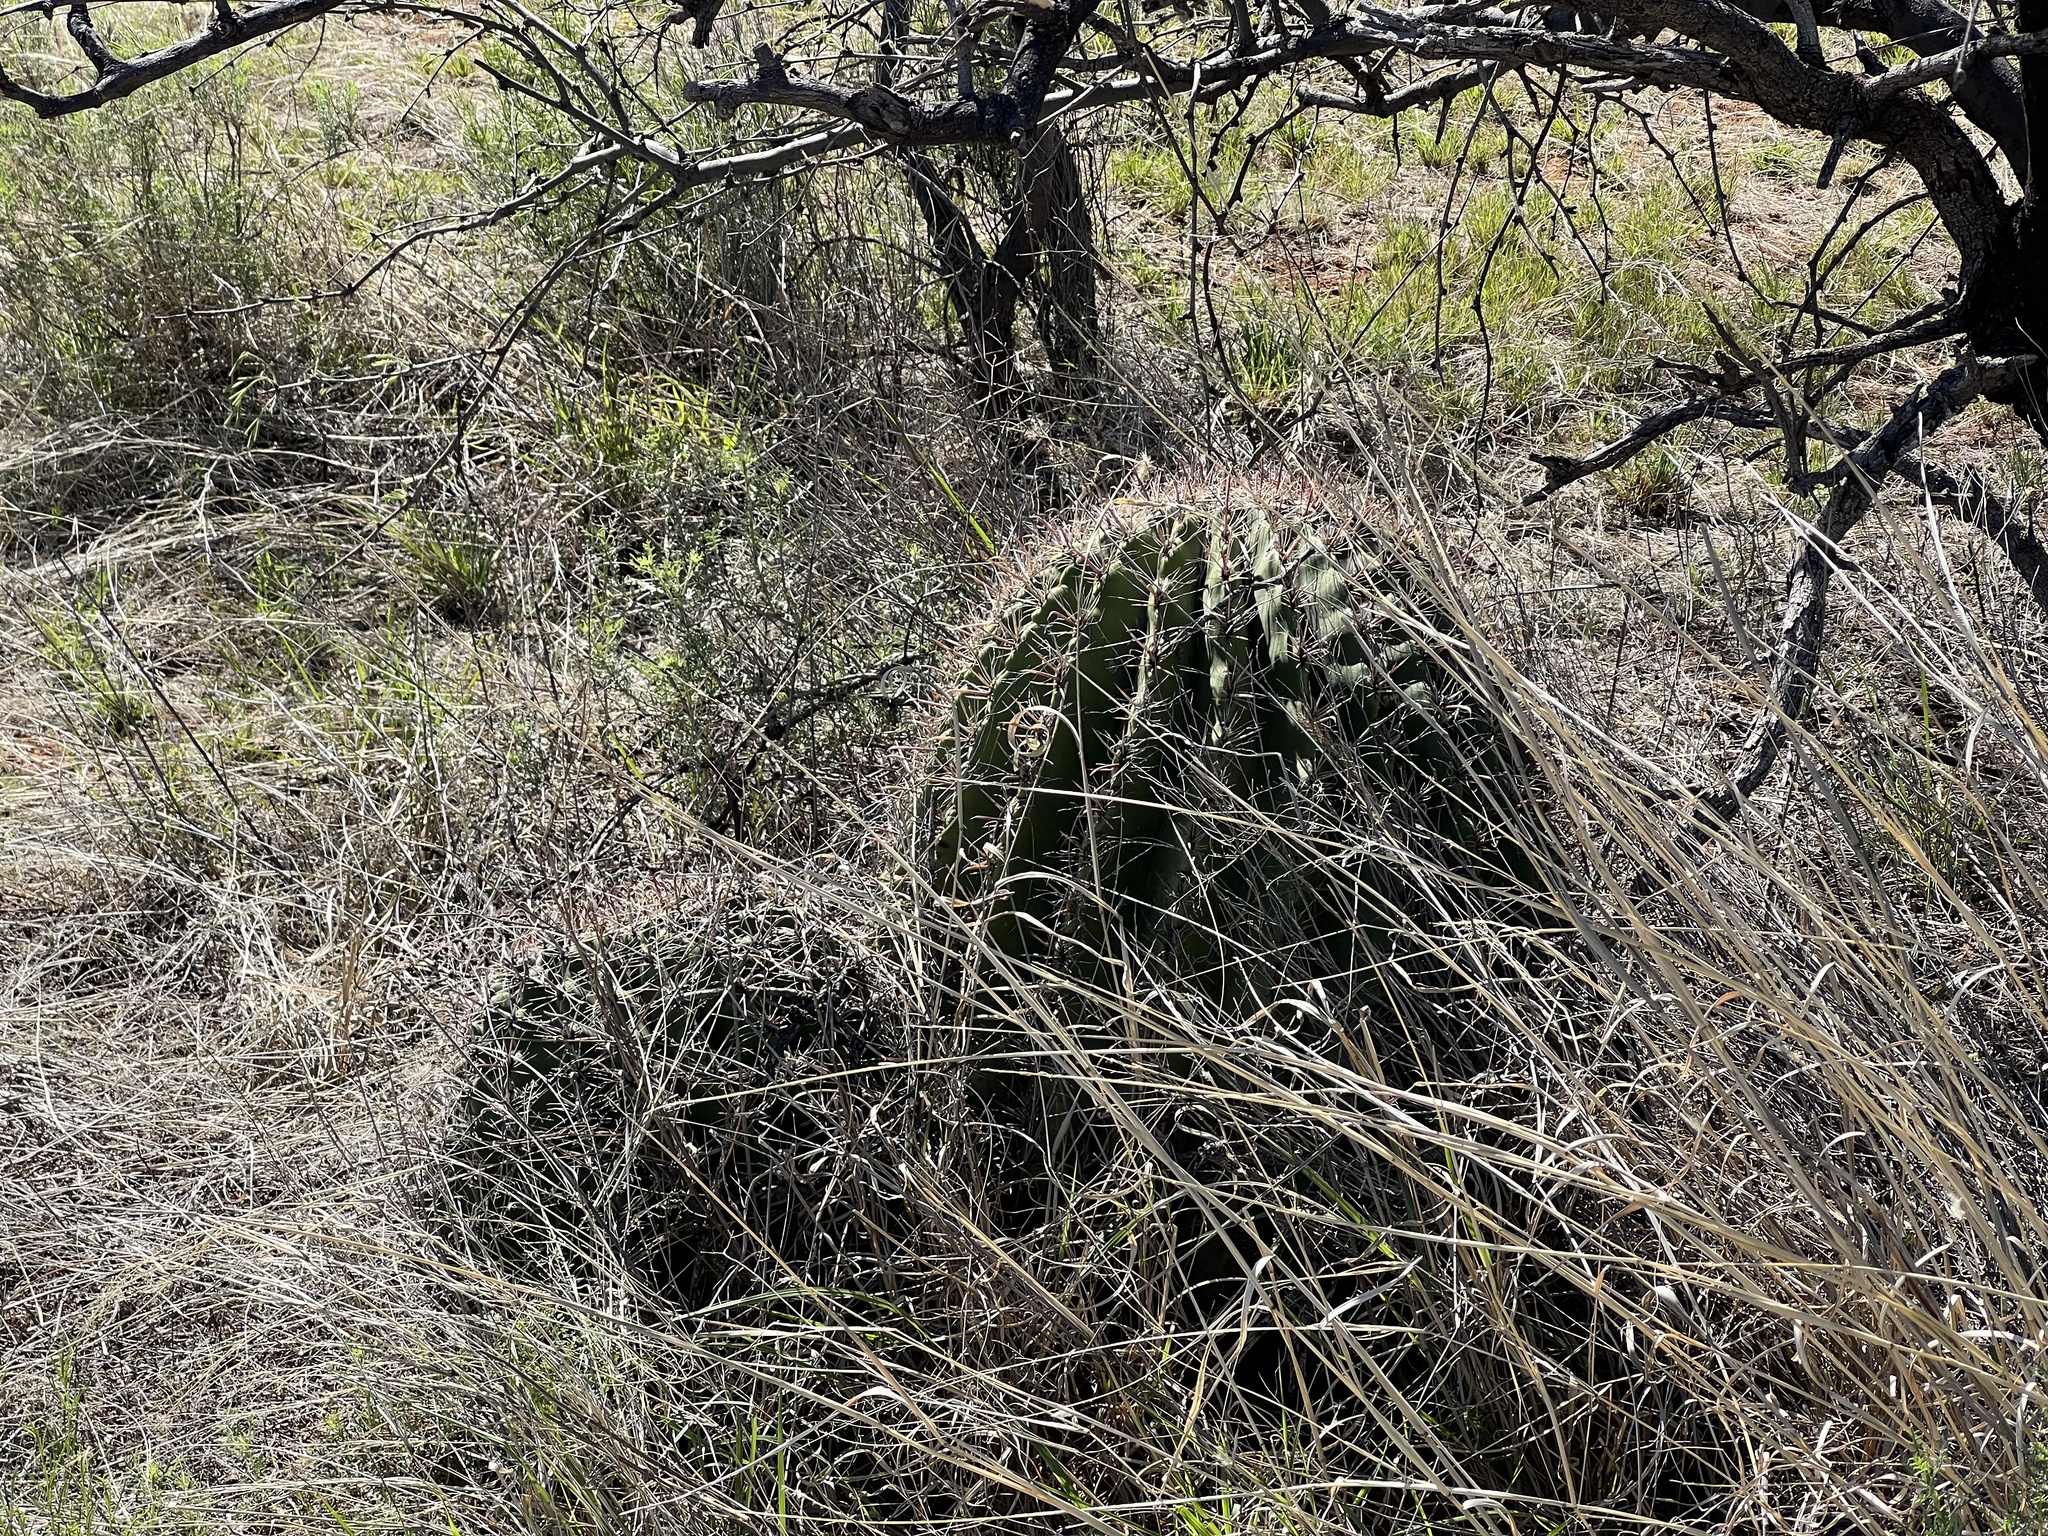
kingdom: Plantae
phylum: Tracheophyta
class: Magnoliopsida
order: Caryophyllales
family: Cactaceae
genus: Ferocactus
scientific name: Ferocactus wislizeni
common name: Candy barrel cactus
